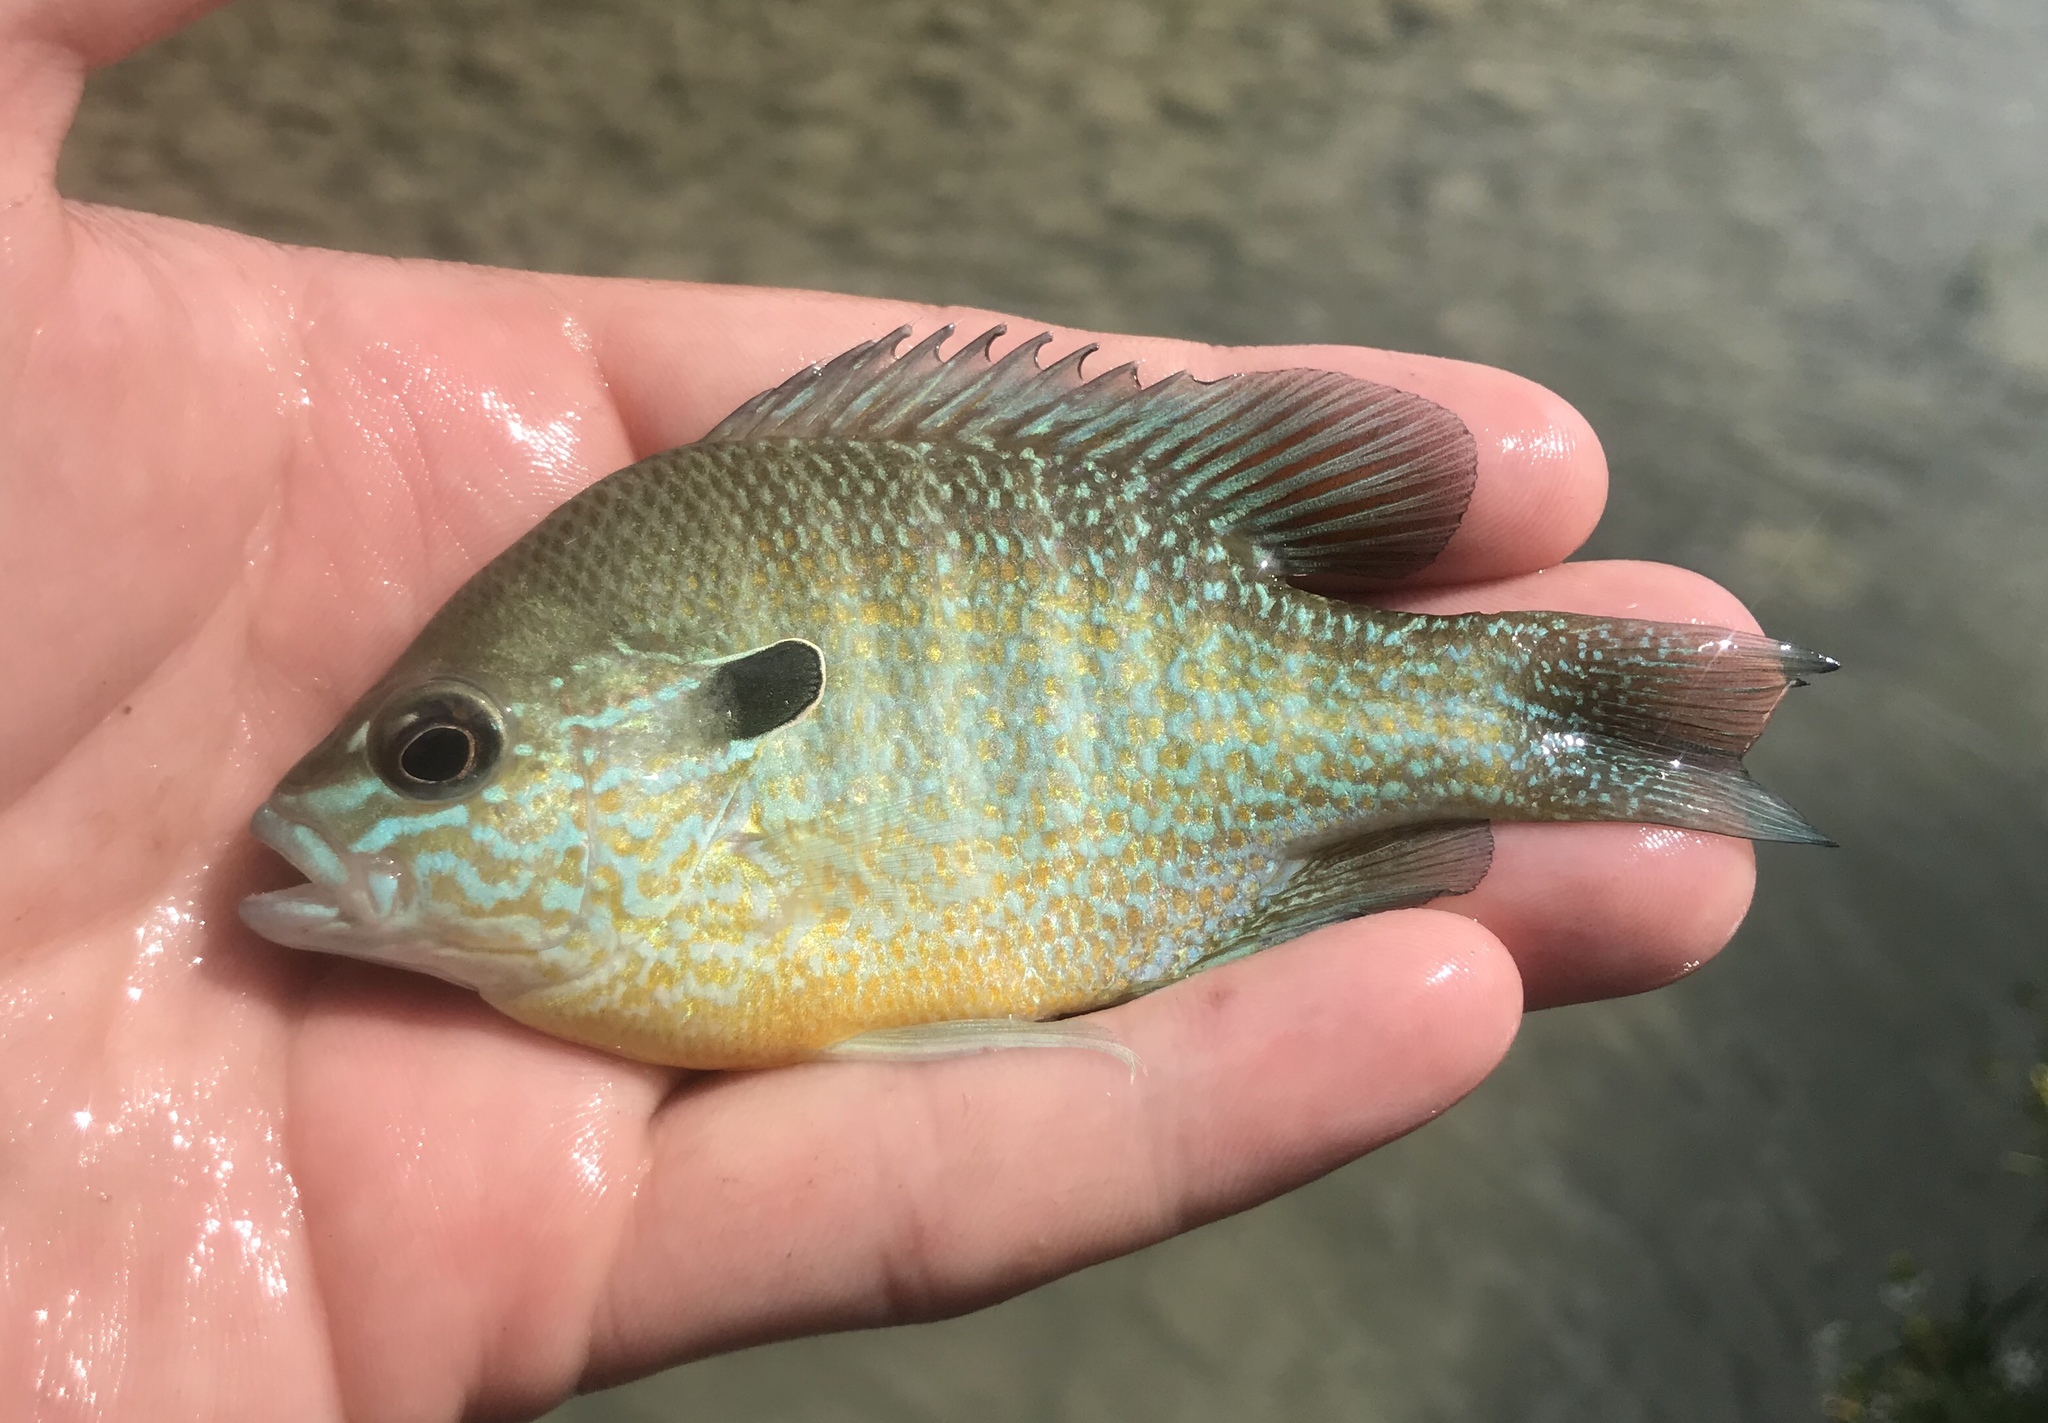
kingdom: Animalia
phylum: Chordata
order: Perciformes
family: Centrarchidae
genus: Lepomis
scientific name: Lepomis megalotis
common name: Longear sunfish
